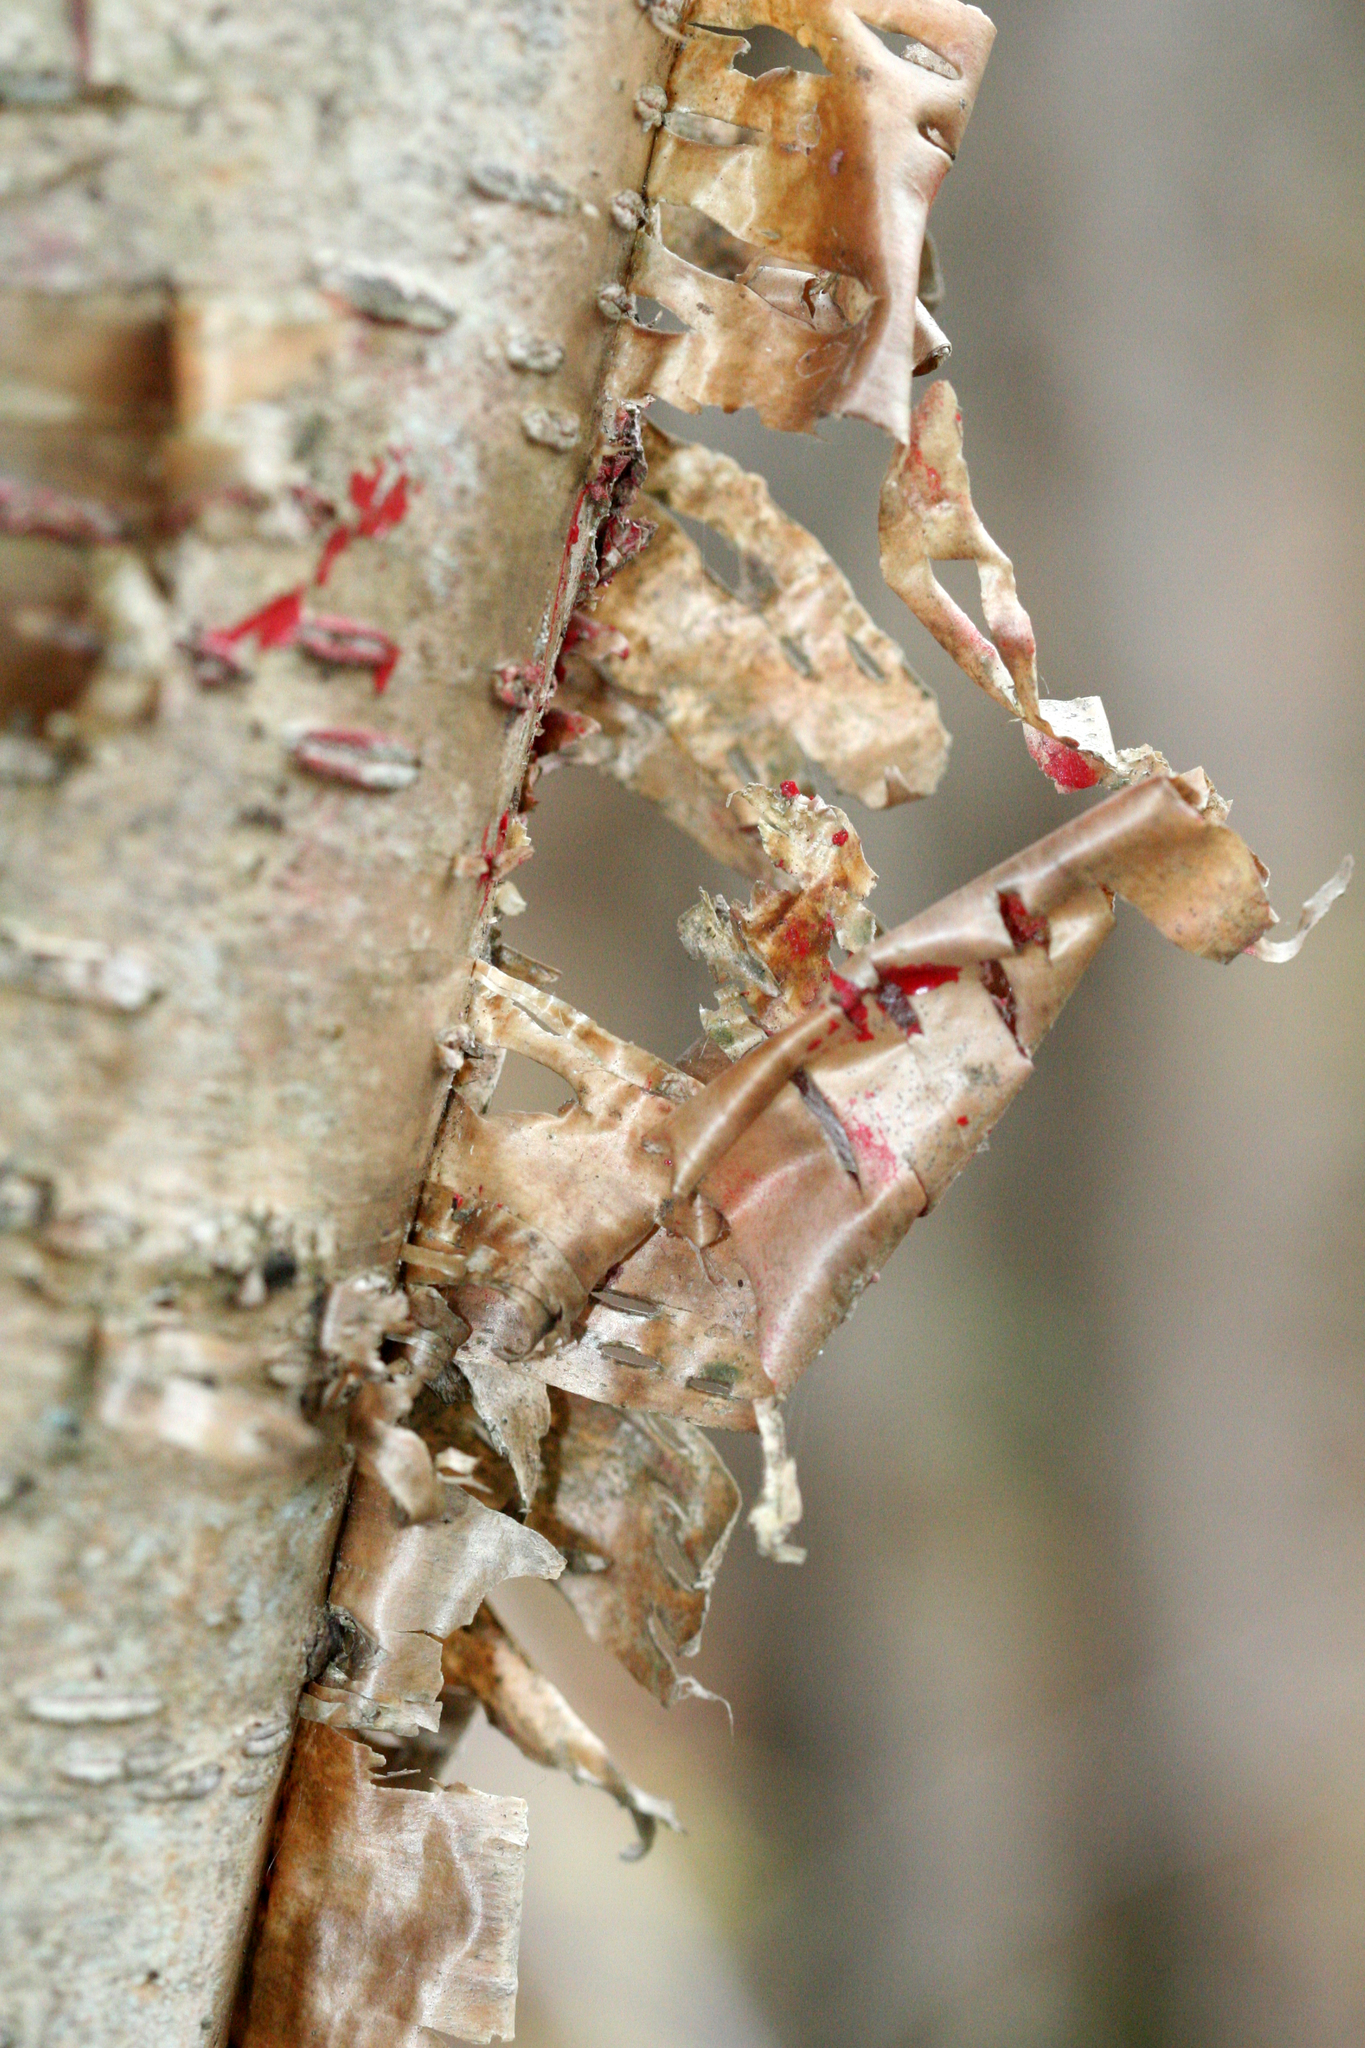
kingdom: Plantae
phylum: Tracheophyta
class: Magnoliopsida
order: Fagales
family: Betulaceae
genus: Betula
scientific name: Betula alleghaniensis
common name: Yellow birch
